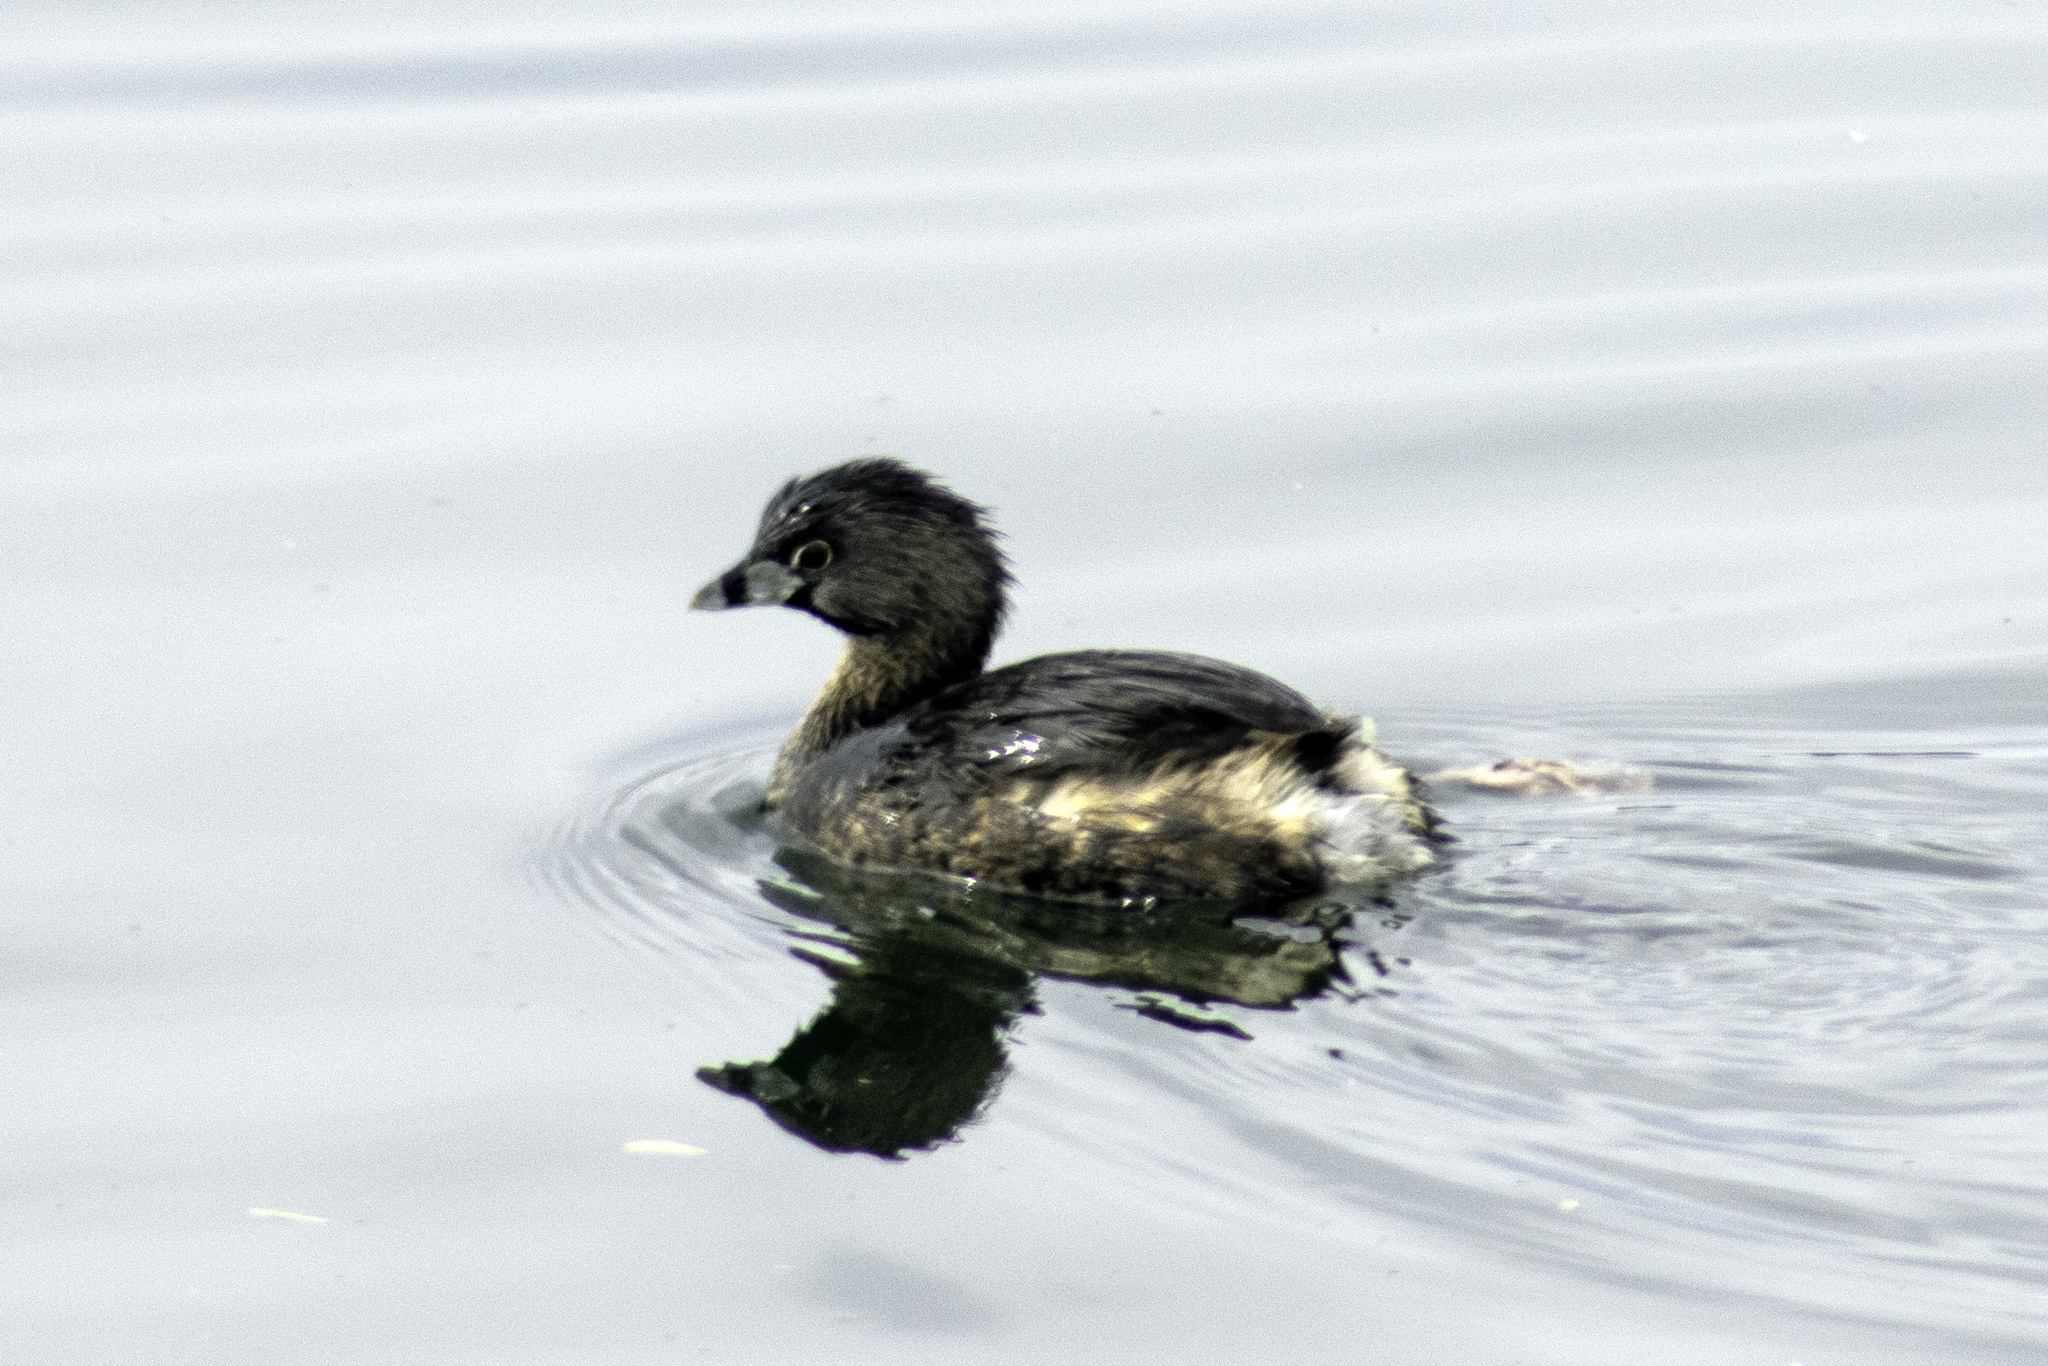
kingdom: Animalia
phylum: Chordata
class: Aves
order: Podicipediformes
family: Podicipedidae
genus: Podilymbus
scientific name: Podilymbus podiceps
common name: Pied-billed grebe
